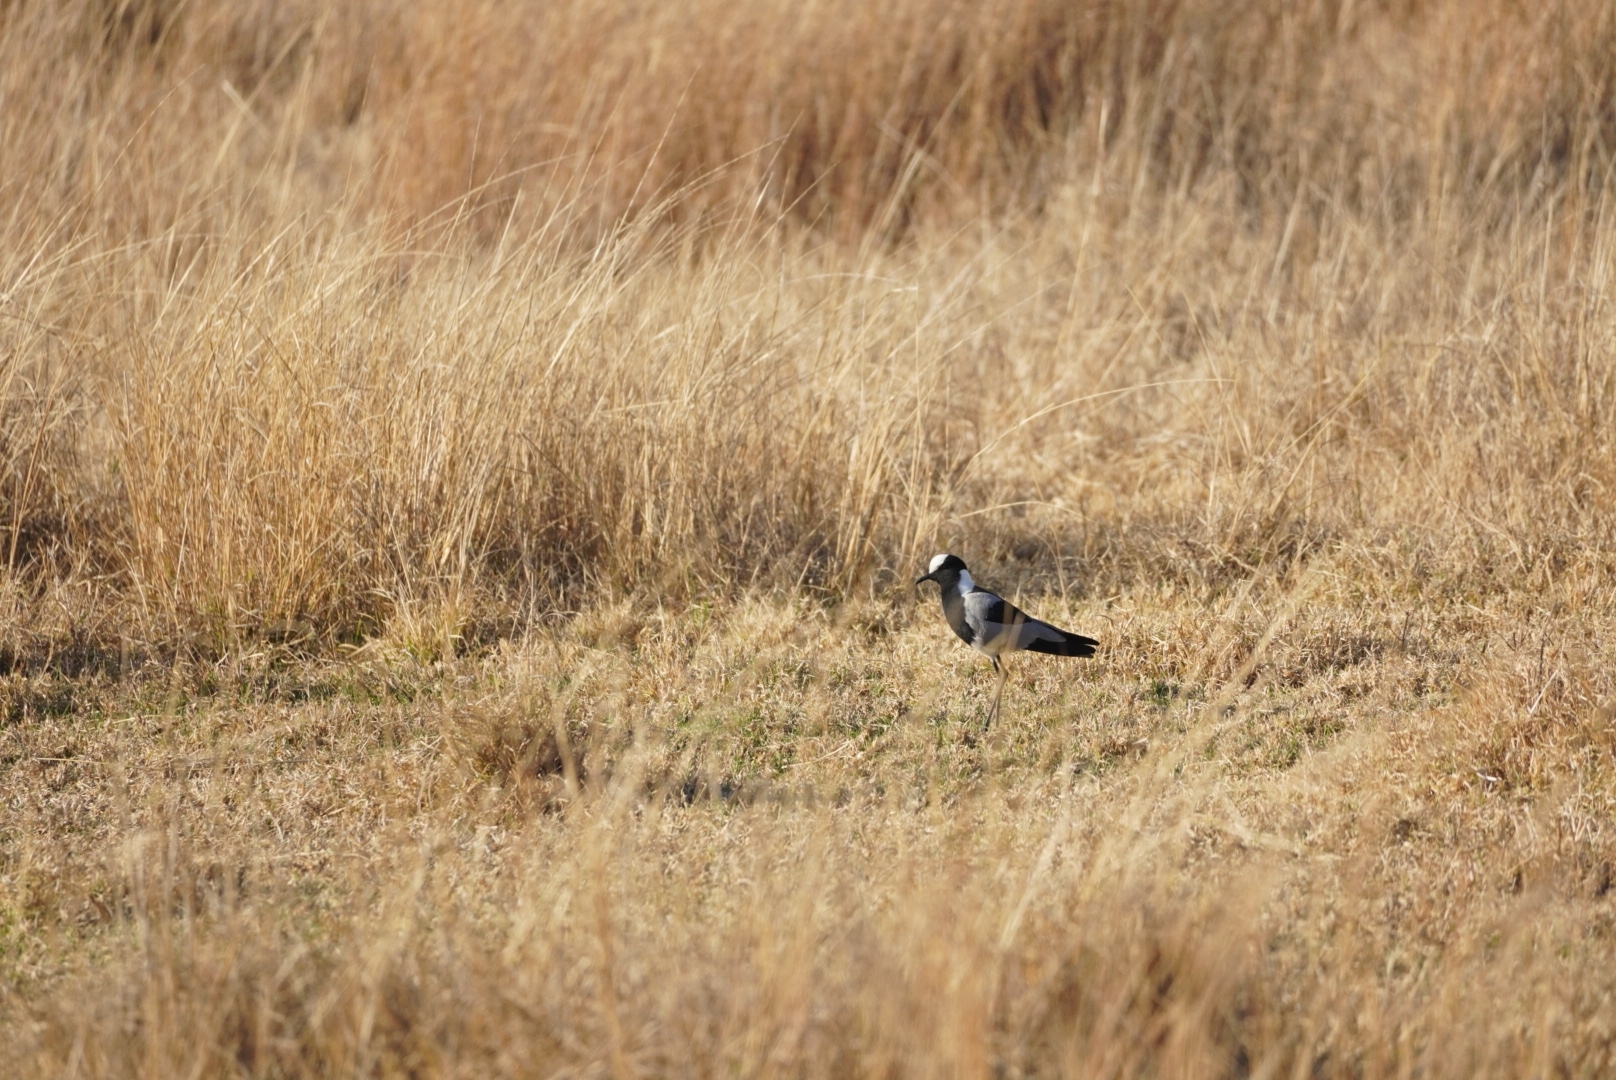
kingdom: Animalia
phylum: Chordata
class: Aves
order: Charadriiformes
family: Charadriidae
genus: Vanellus
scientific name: Vanellus armatus
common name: Blacksmith lapwing
